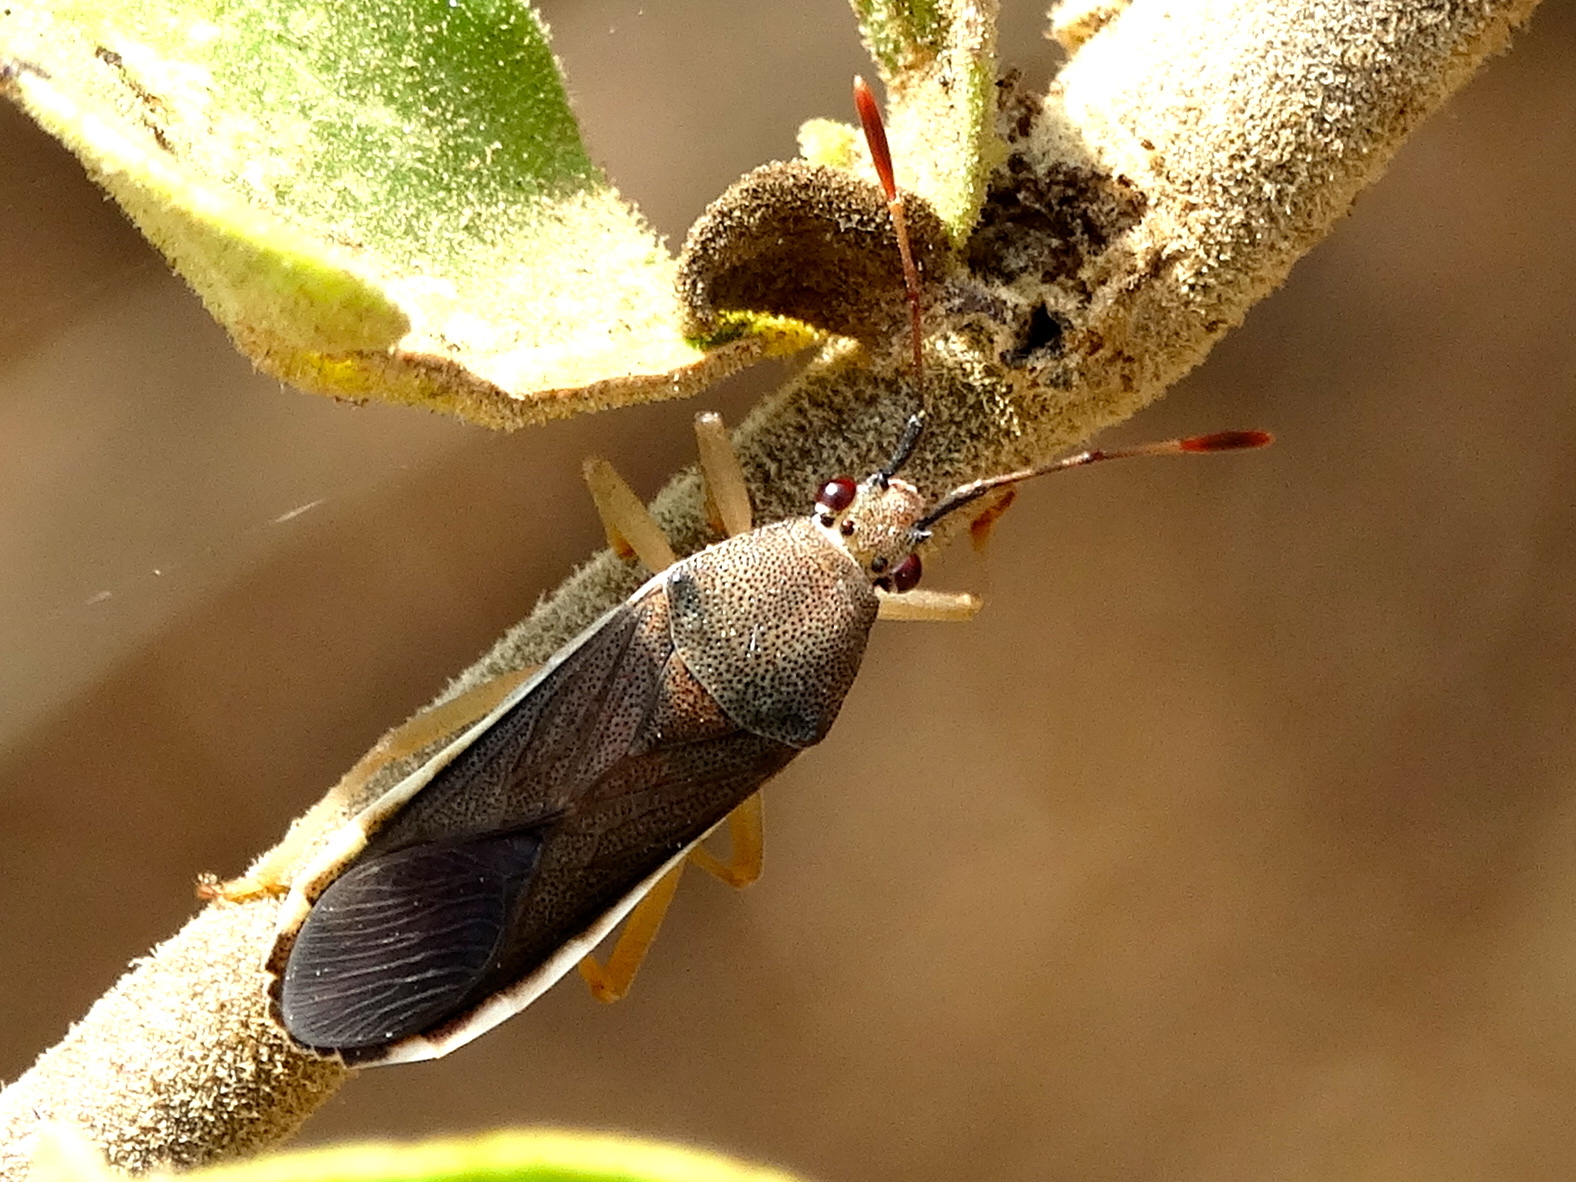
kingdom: Animalia
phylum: Arthropoda
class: Insecta
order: Hemiptera
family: Coreidae
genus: Catorhintha
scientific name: Catorhintha flava
